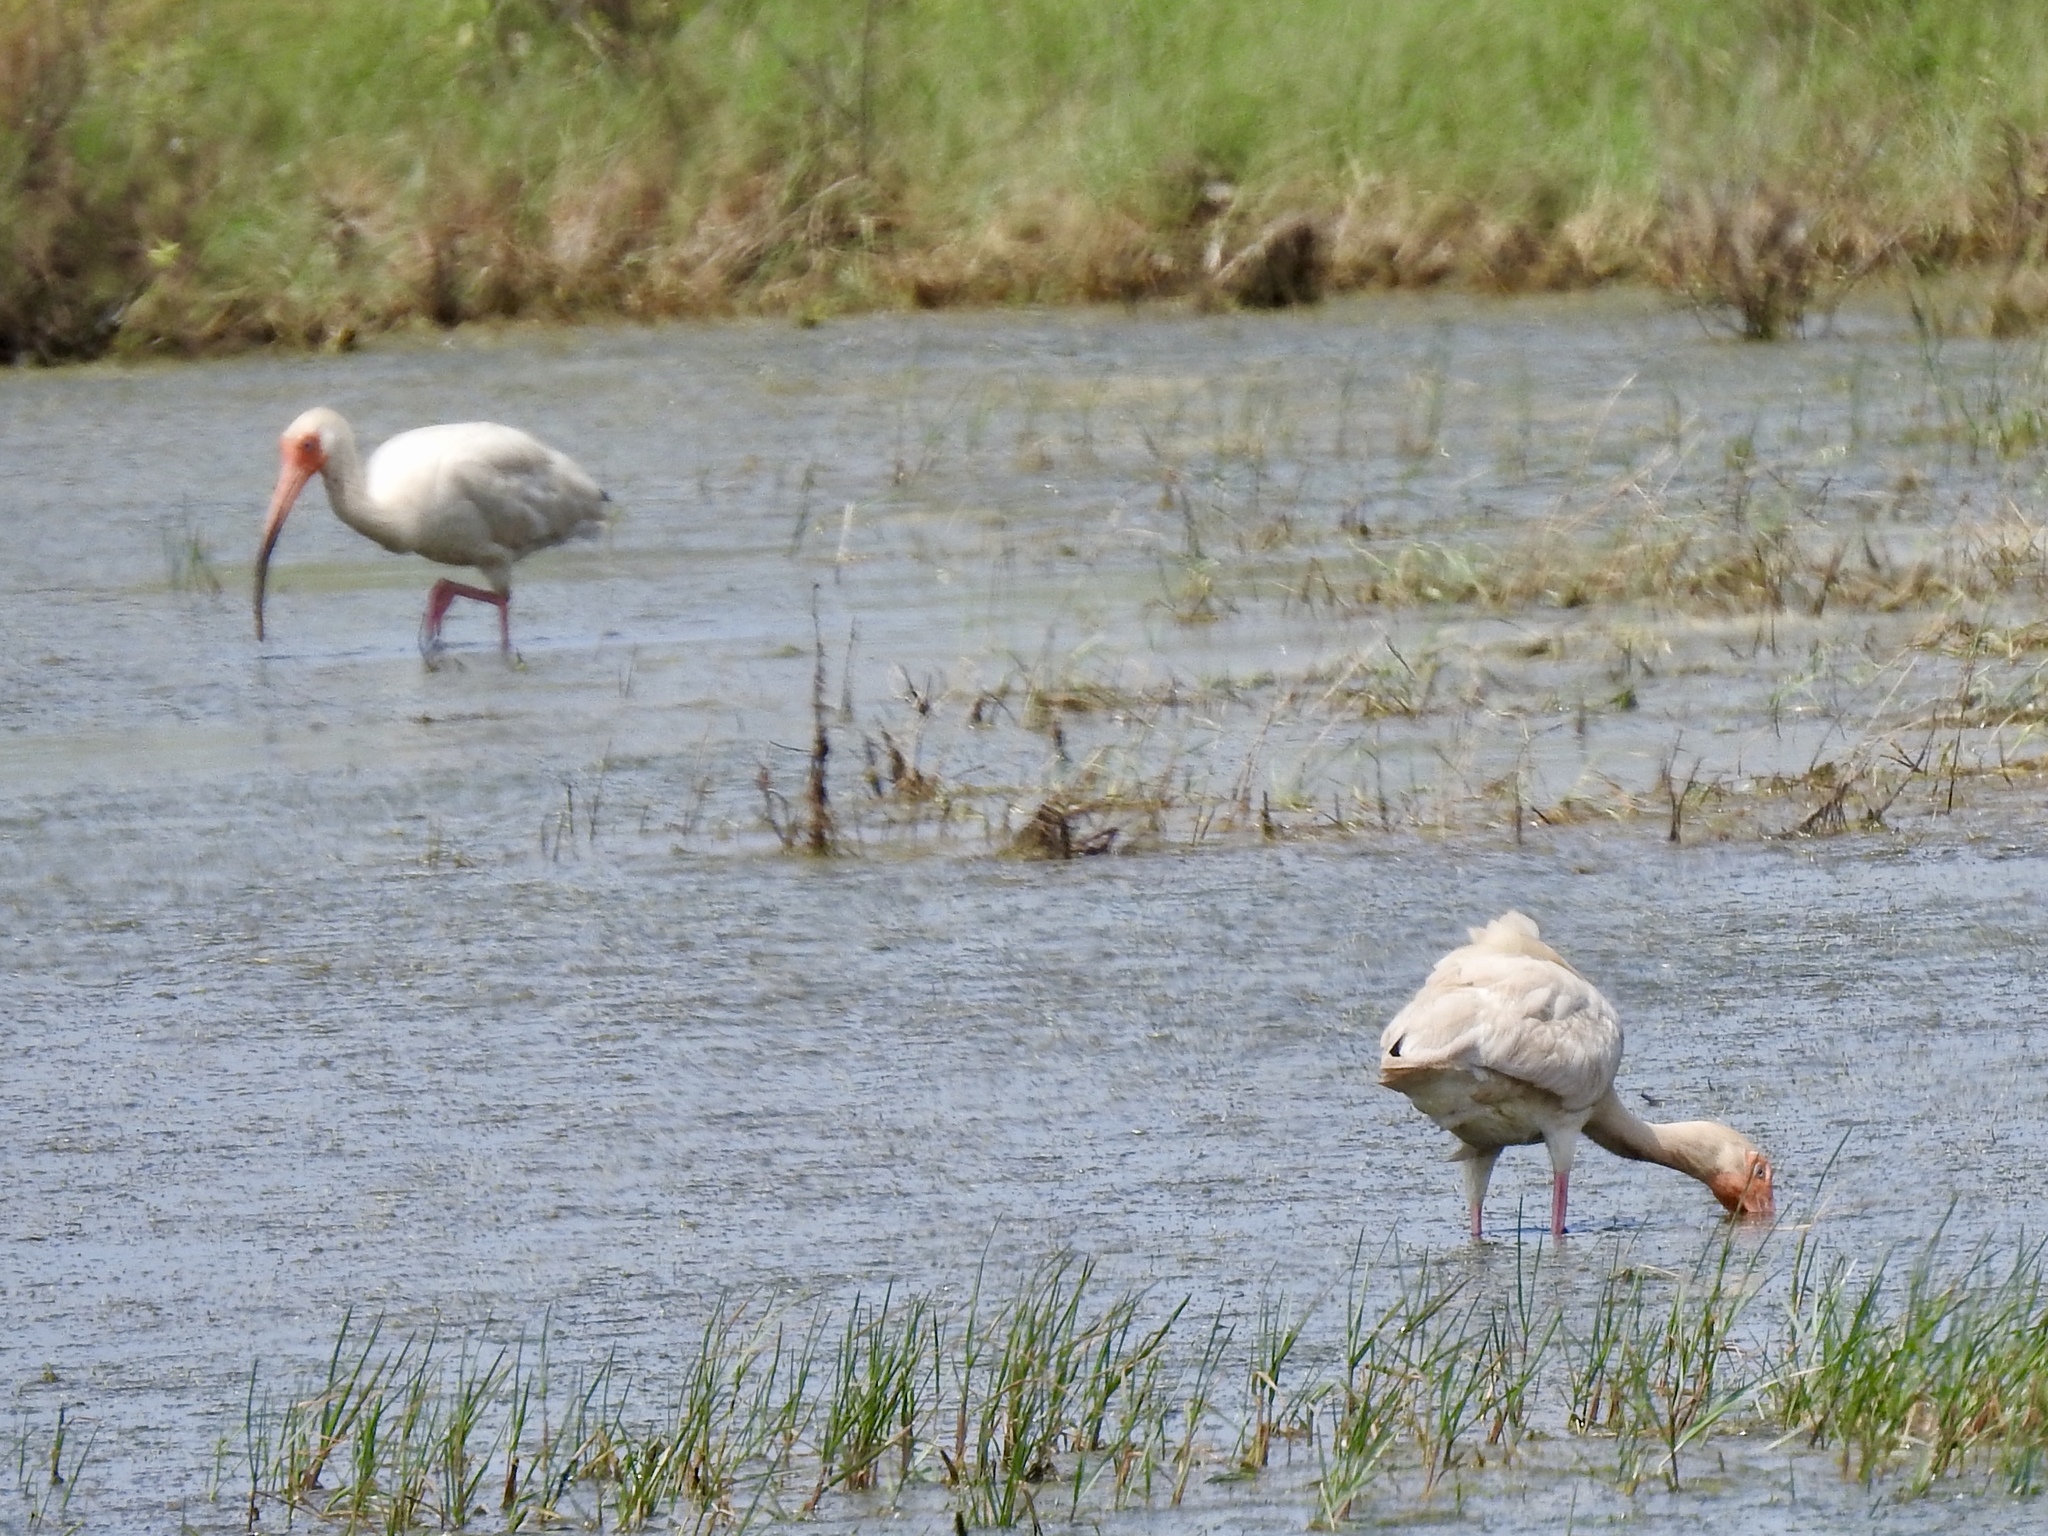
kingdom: Animalia
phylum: Chordata
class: Aves
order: Pelecaniformes
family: Threskiornithidae
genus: Eudocimus
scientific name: Eudocimus albus
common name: White ibis
